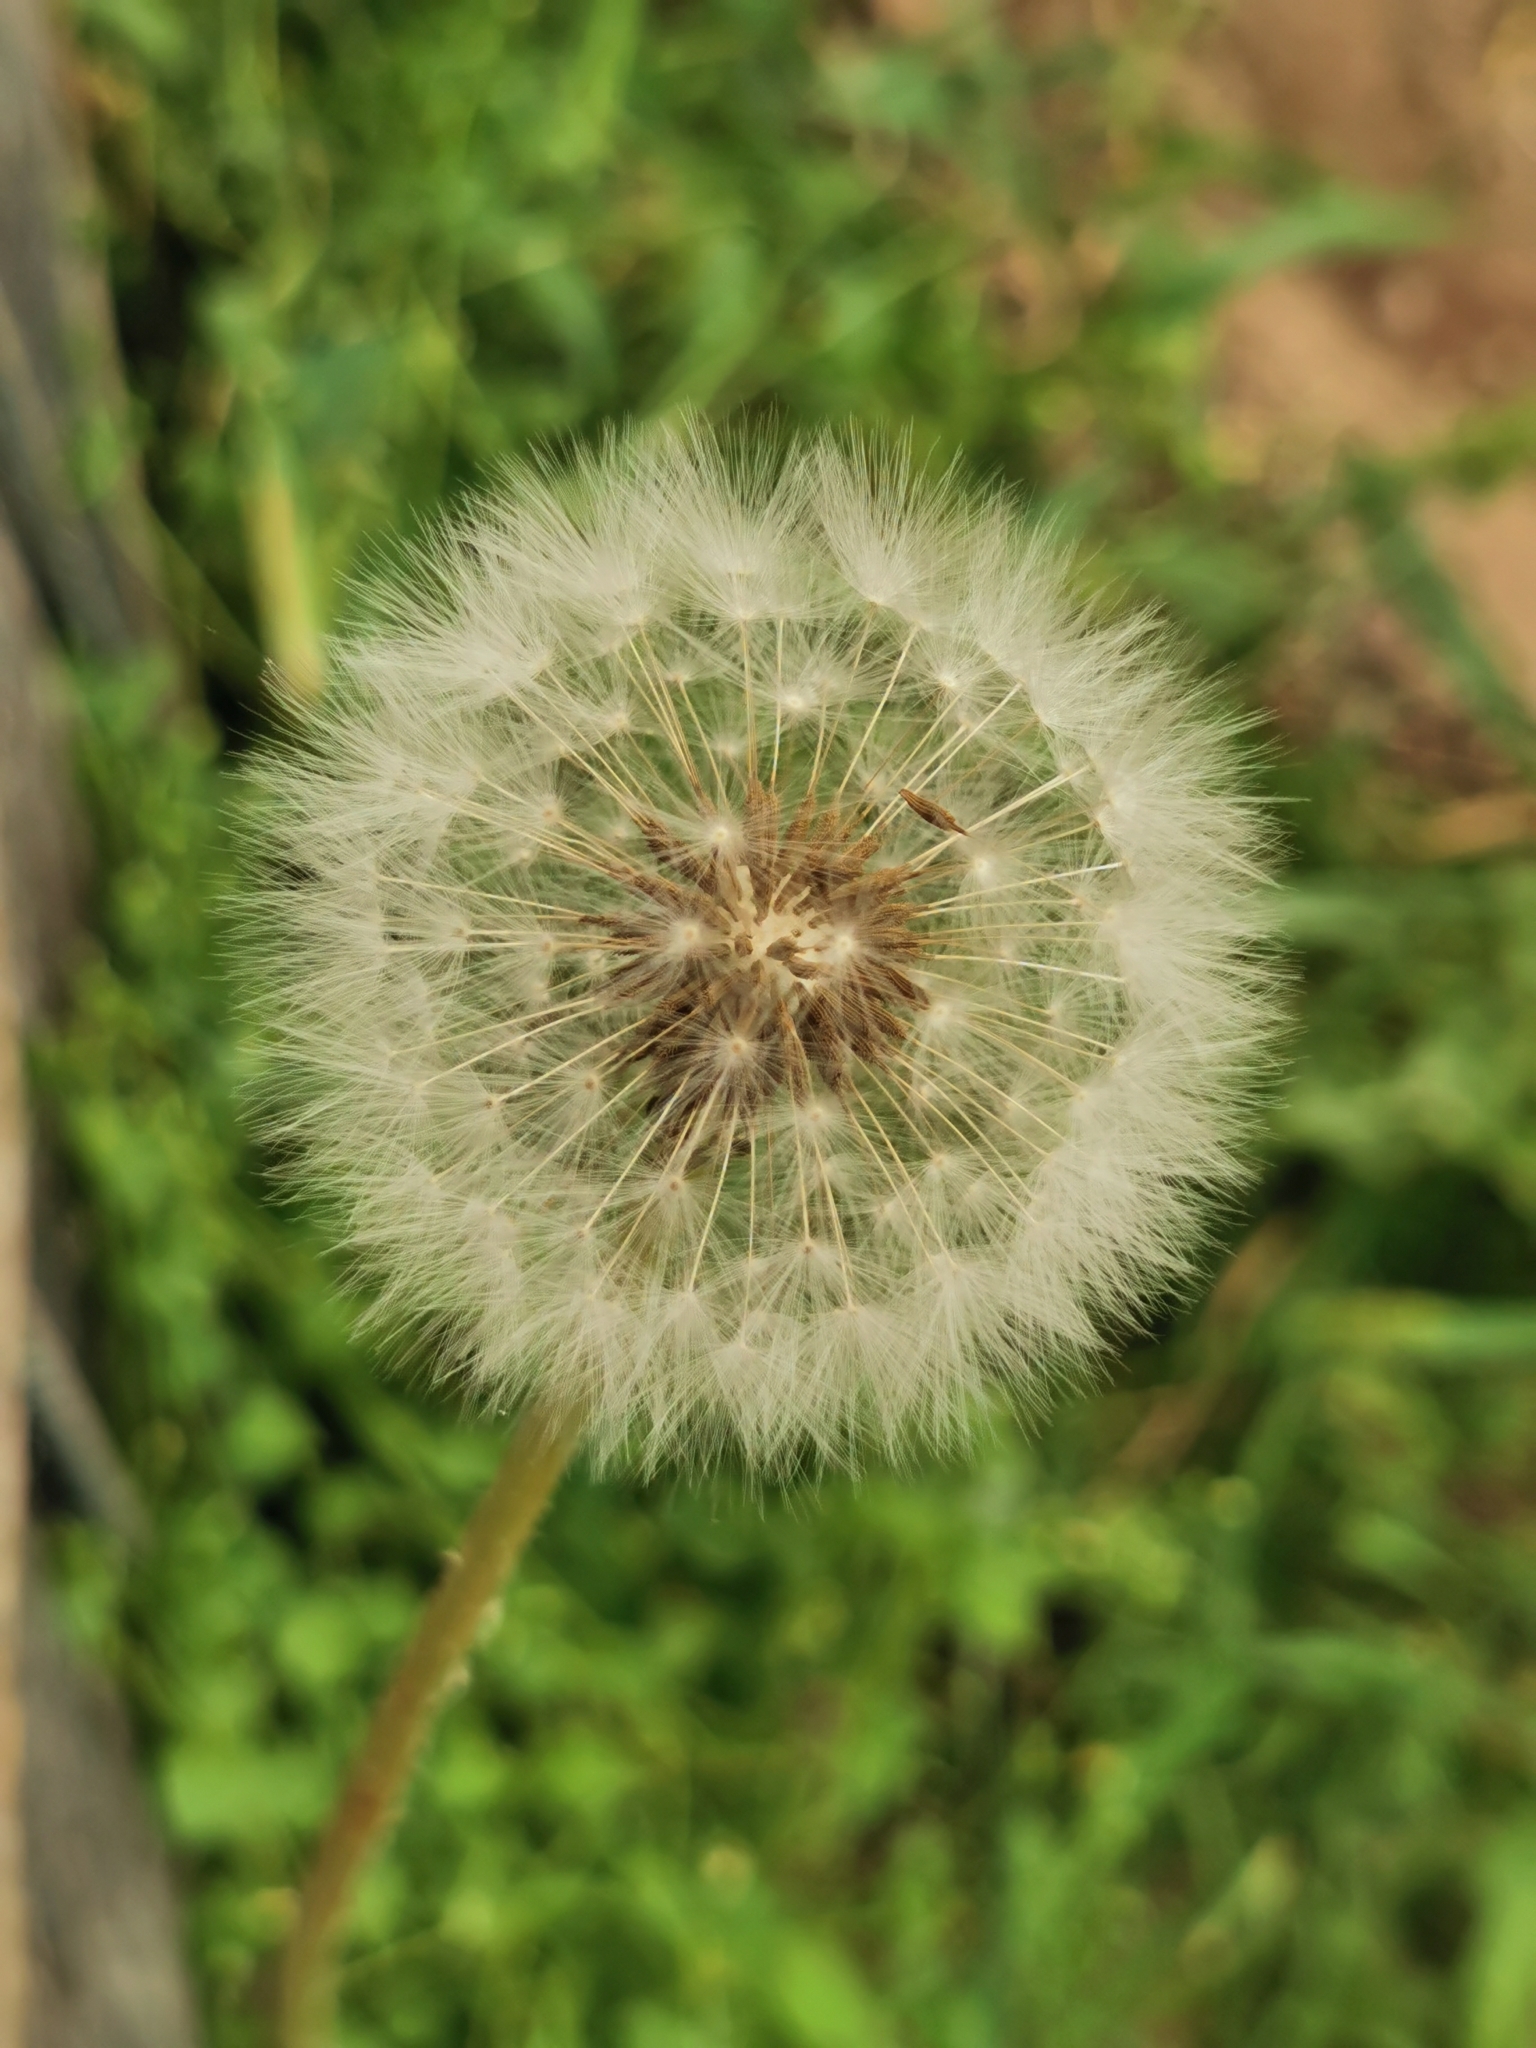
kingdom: Plantae
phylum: Tracheophyta
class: Magnoliopsida
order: Asterales
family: Asteraceae
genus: Taraxacum
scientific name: Taraxacum officinale
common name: Common dandelion
